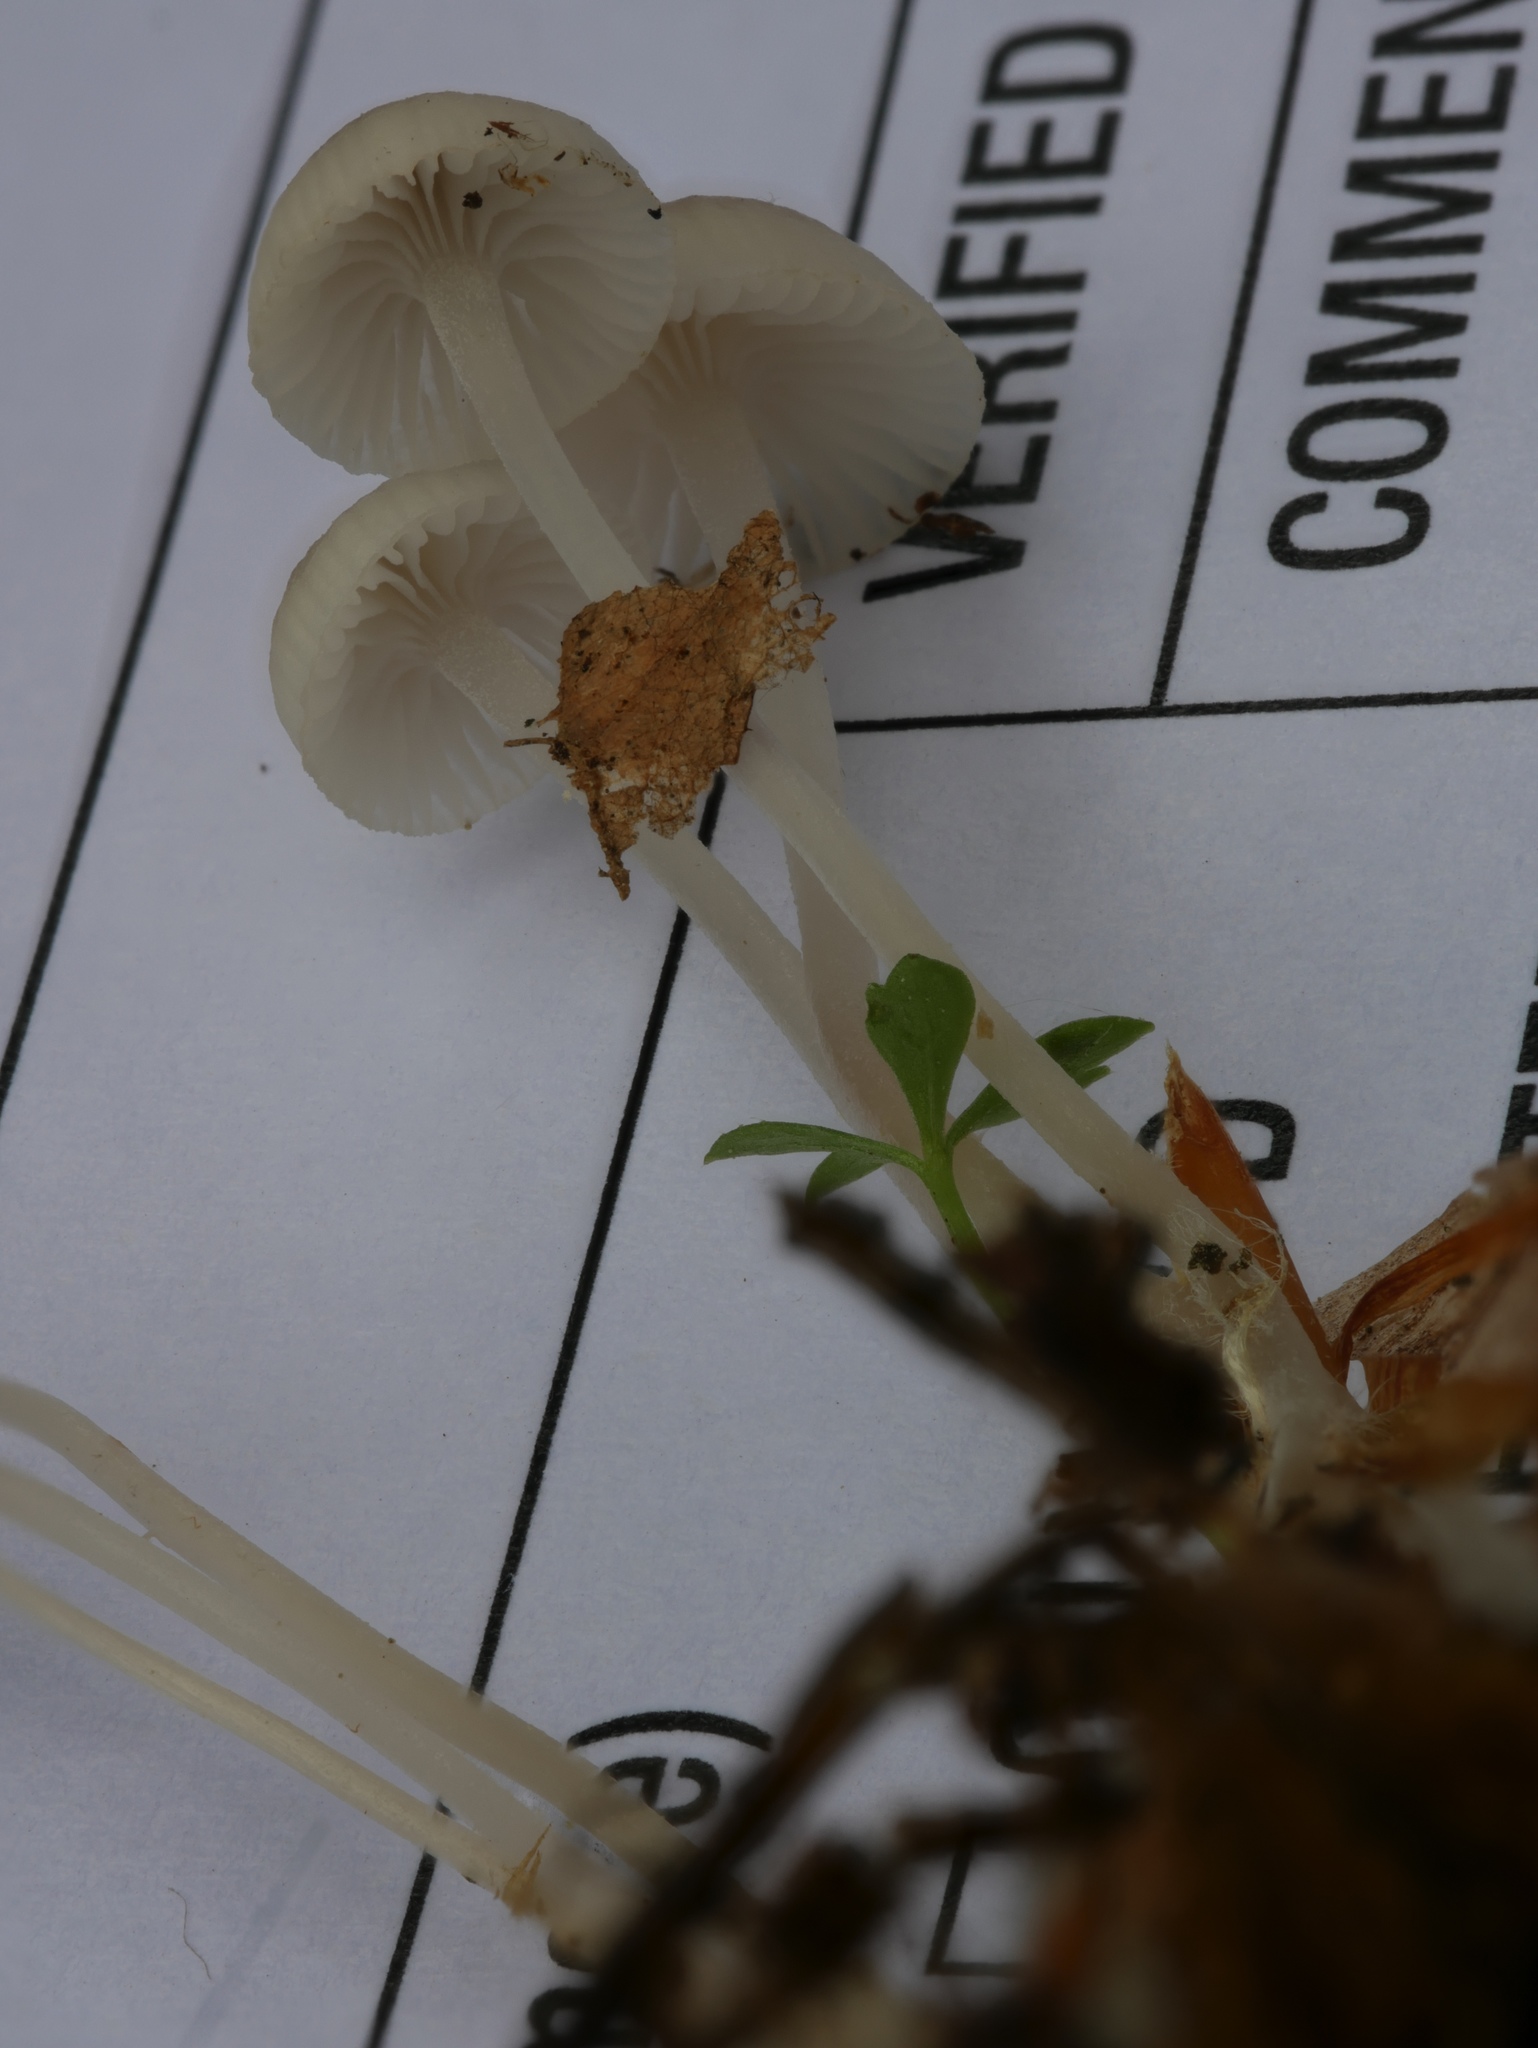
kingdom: Fungi
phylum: Basidiomycota
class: Agaricomycetes
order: Agaricales
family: Mycenaceae
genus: Mycena
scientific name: Mycena odorifera
